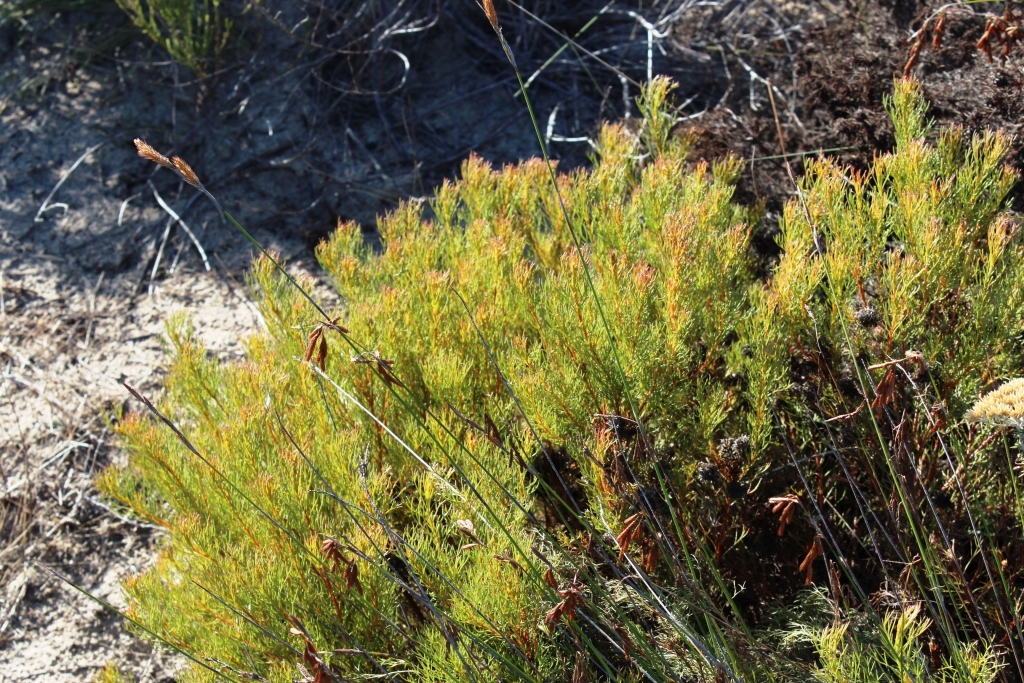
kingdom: Plantae
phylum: Tracheophyta
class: Magnoliopsida
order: Proteales
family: Proteaceae
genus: Serruria
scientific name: Serruria aemula
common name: Strawberry spiderhead
